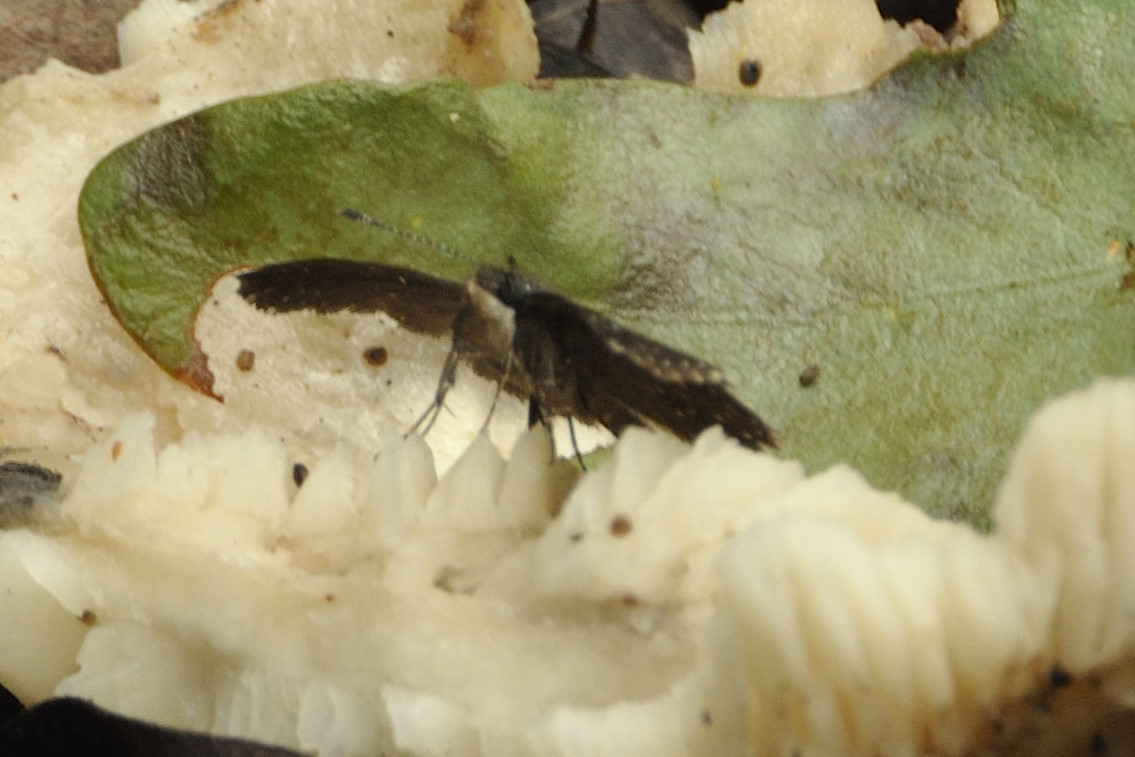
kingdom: Animalia
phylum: Arthropoda
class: Insecta
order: Lepidoptera
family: Hesperiidae
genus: Sarangesa
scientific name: Sarangesa astrigera
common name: White-speckled elfin
